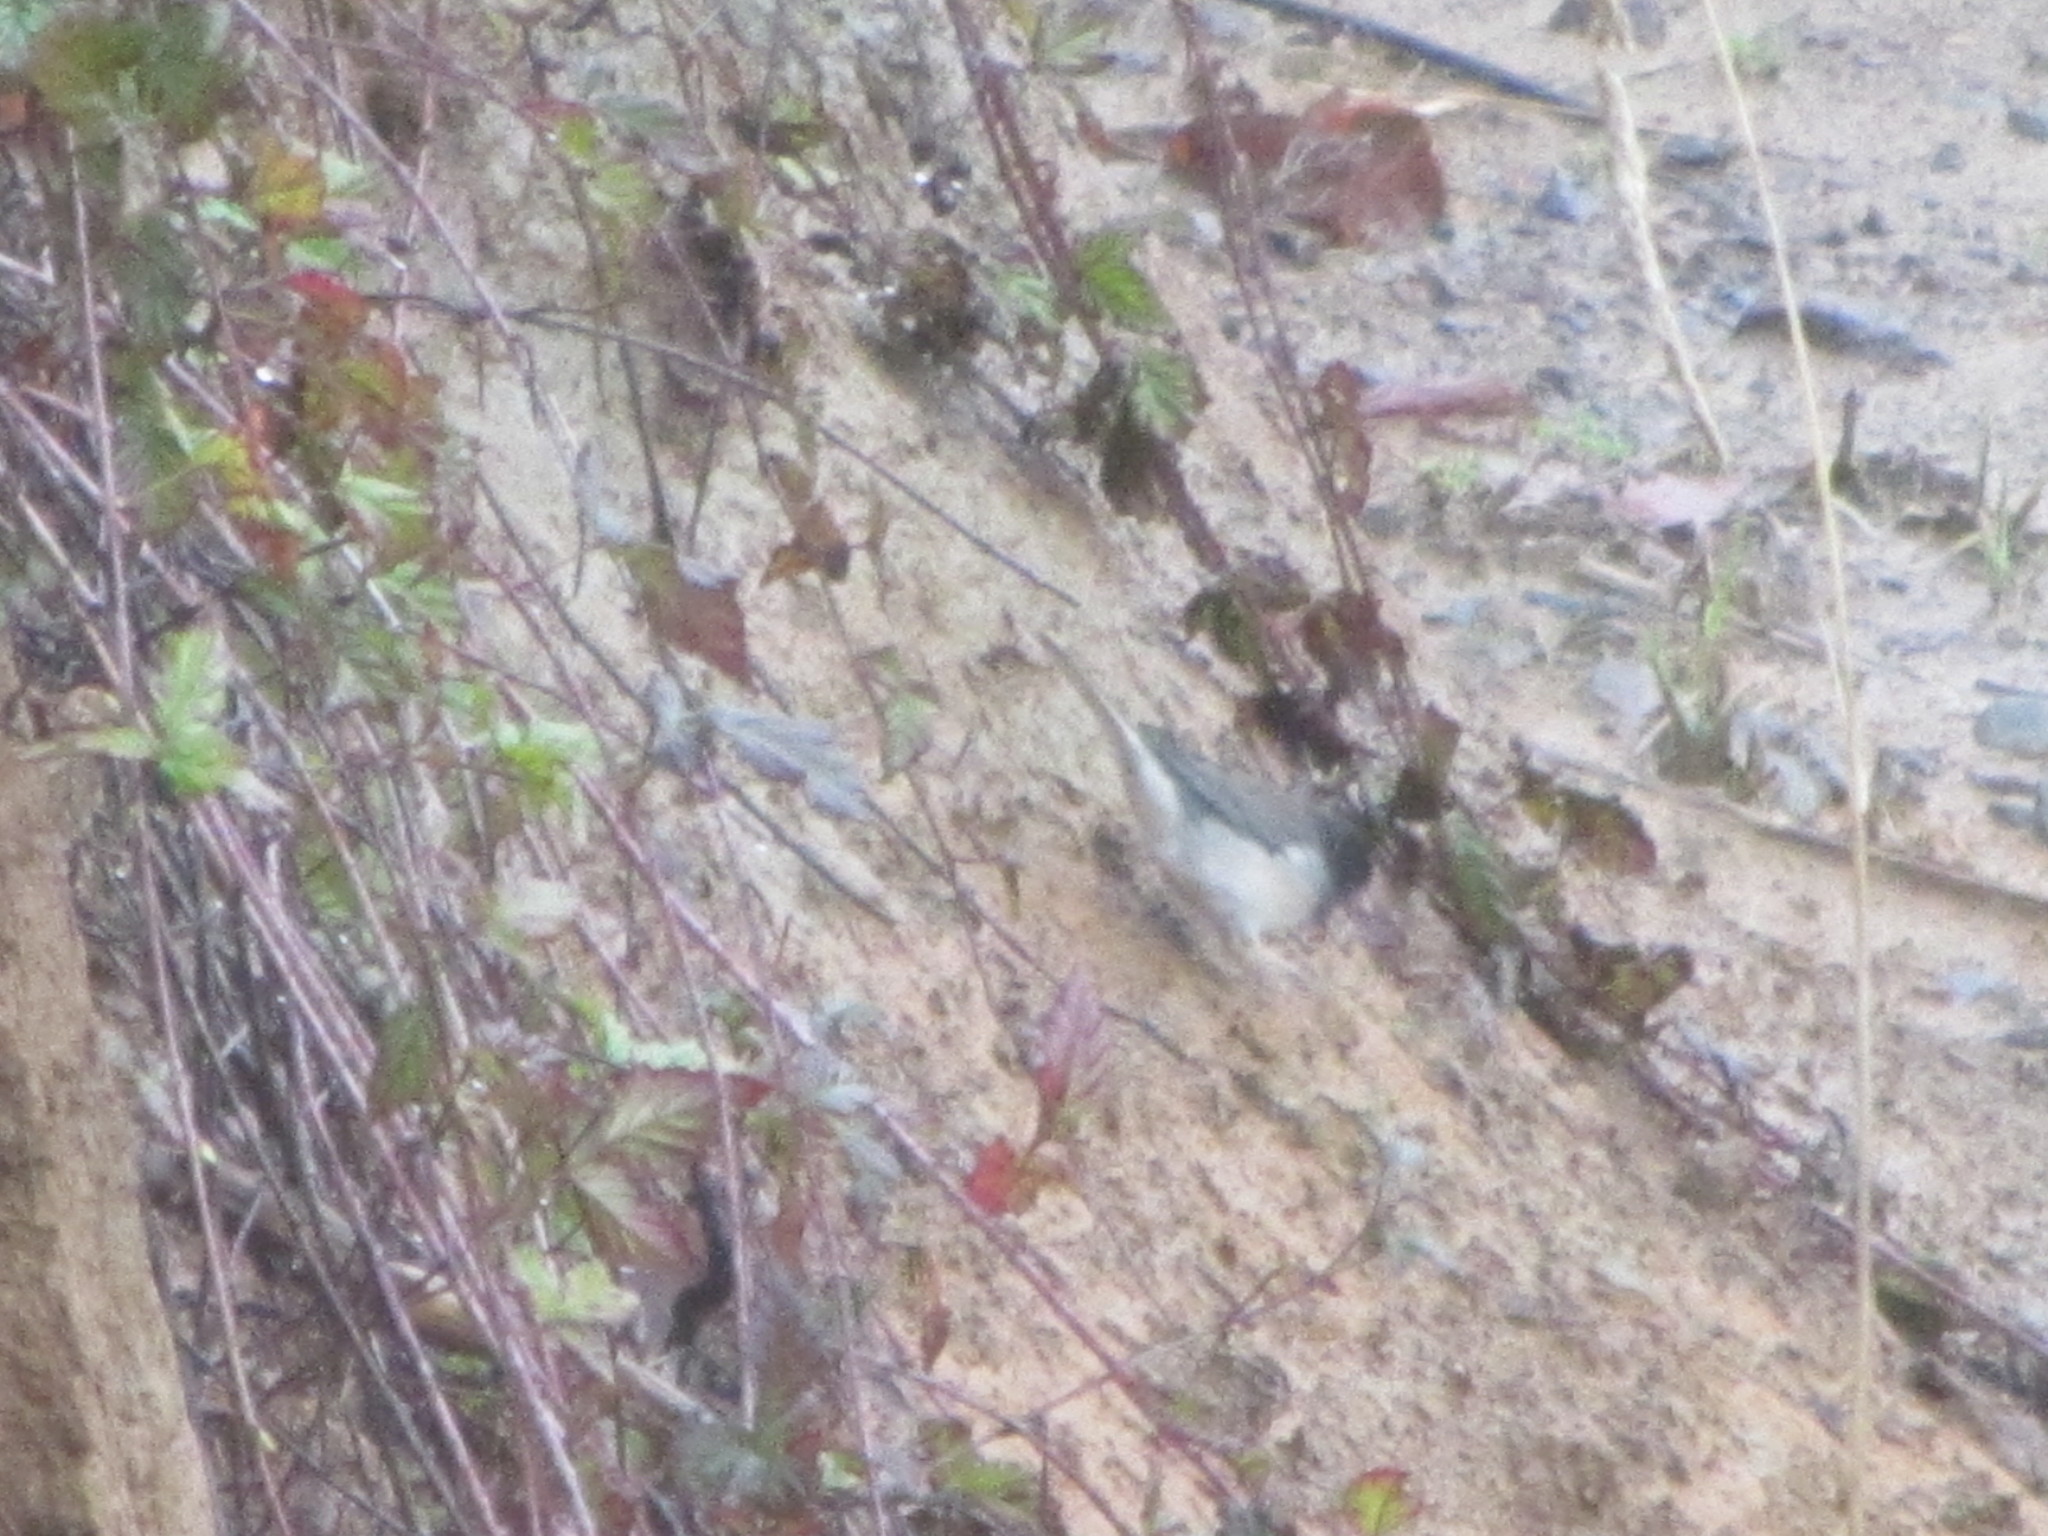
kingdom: Animalia
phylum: Chordata
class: Aves
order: Passeriformes
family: Passerellidae
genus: Junco
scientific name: Junco hyemalis
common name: Dark-eyed junco
